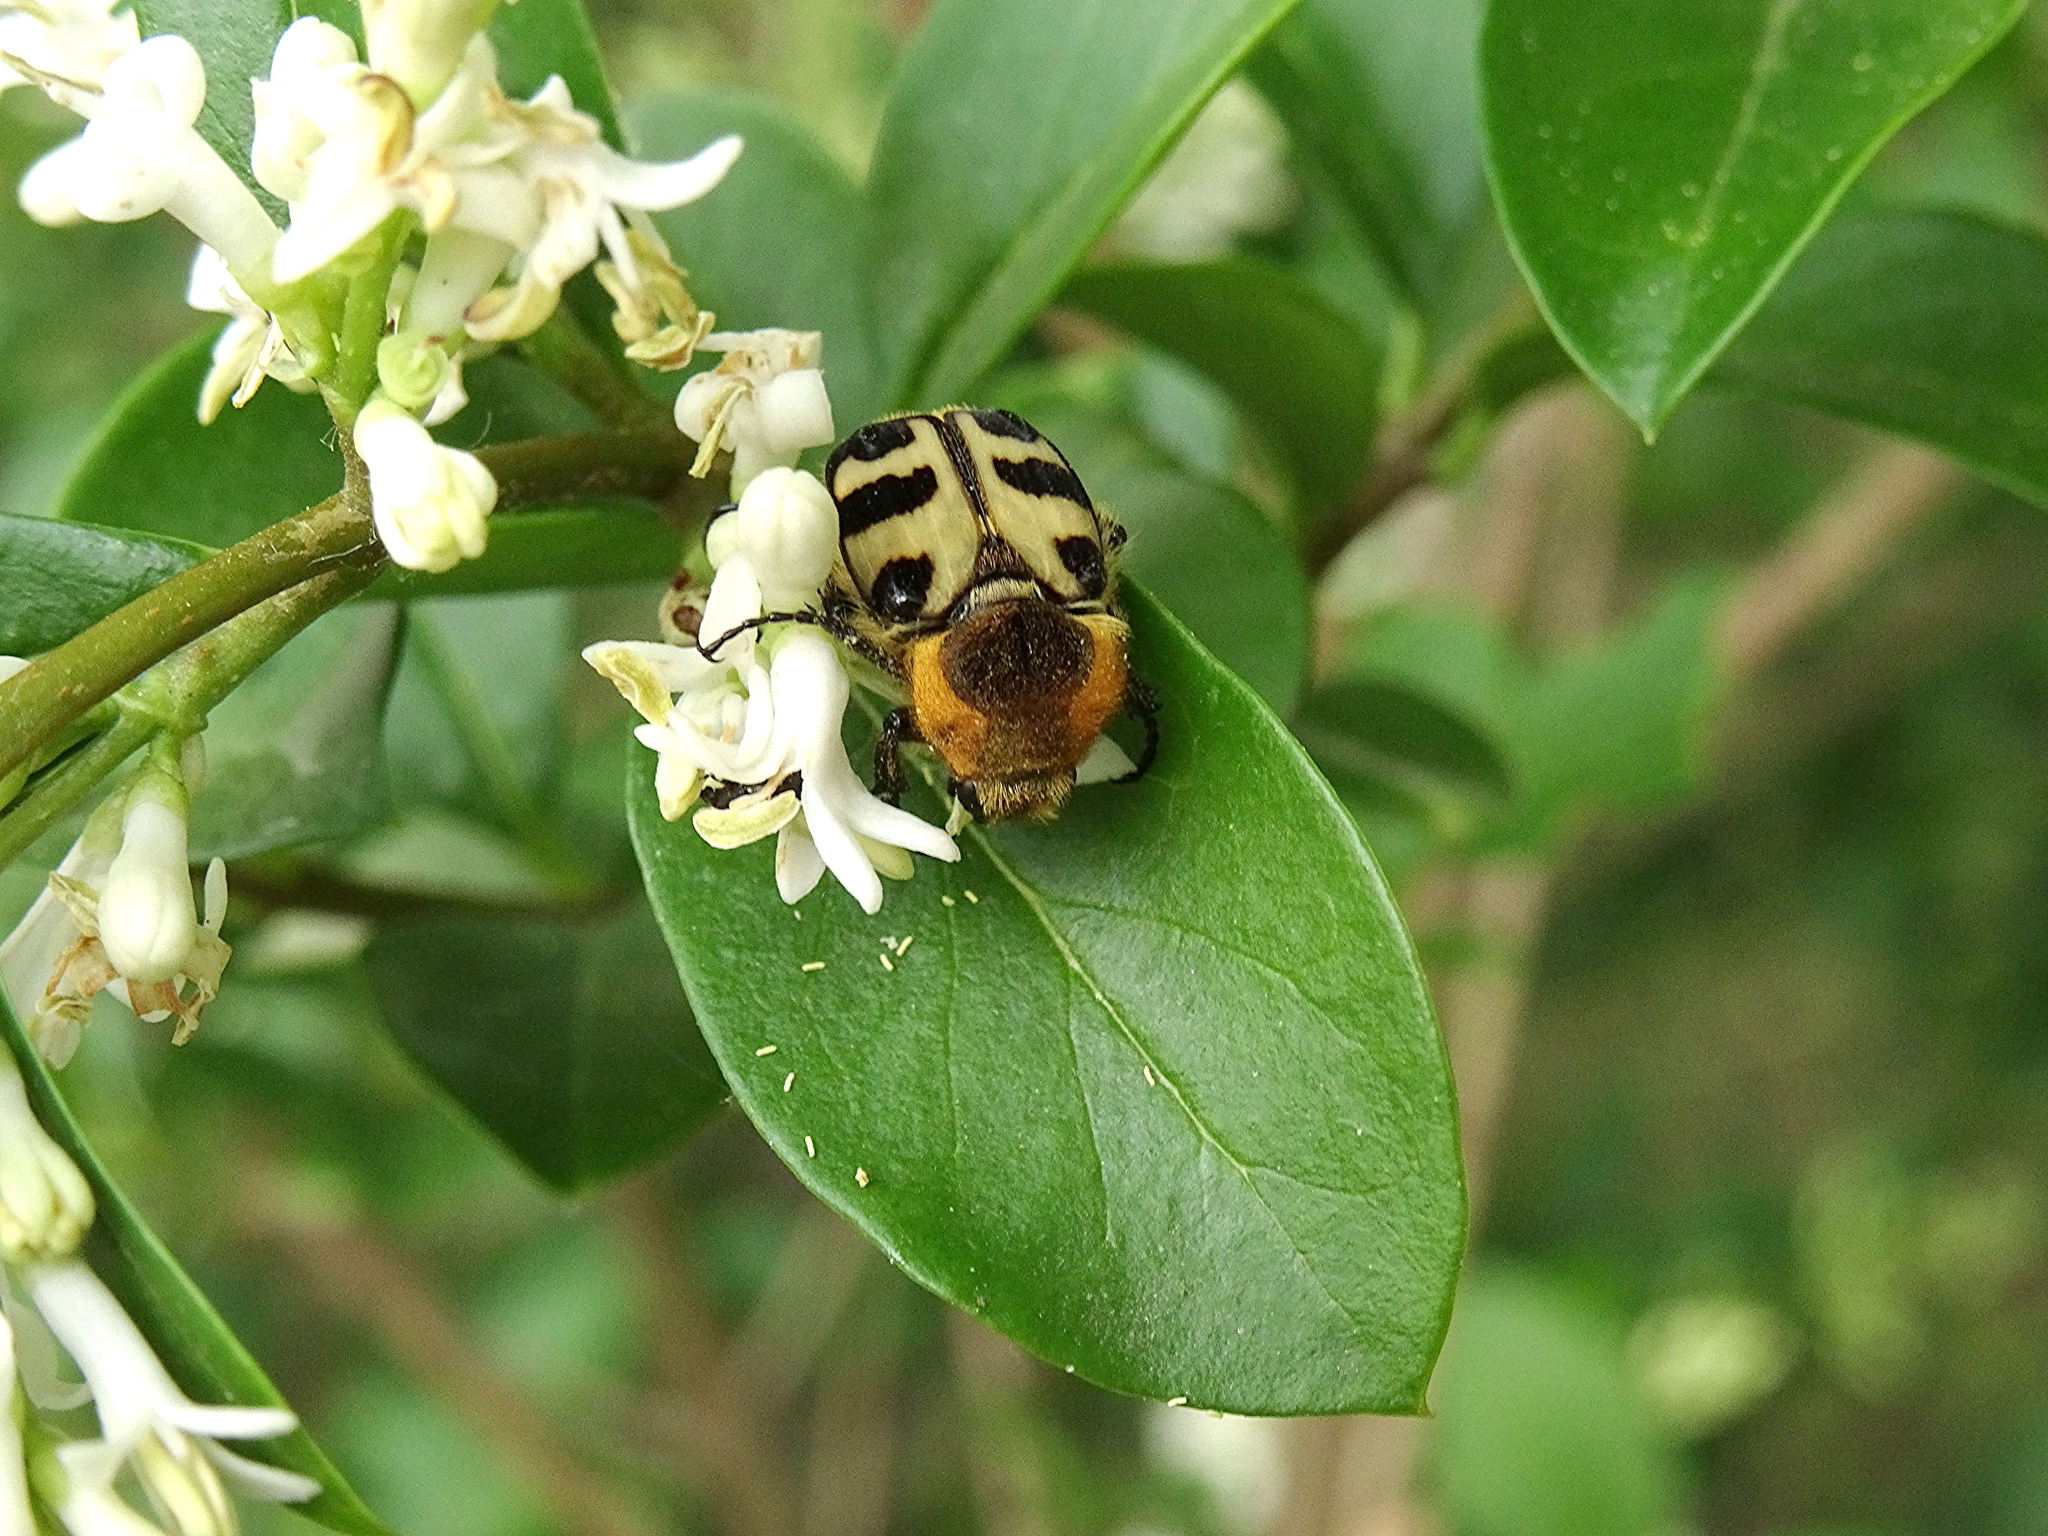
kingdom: Animalia
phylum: Arthropoda
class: Insecta
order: Coleoptera
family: Scarabaeidae
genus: Trichius
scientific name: Trichius gallicus
